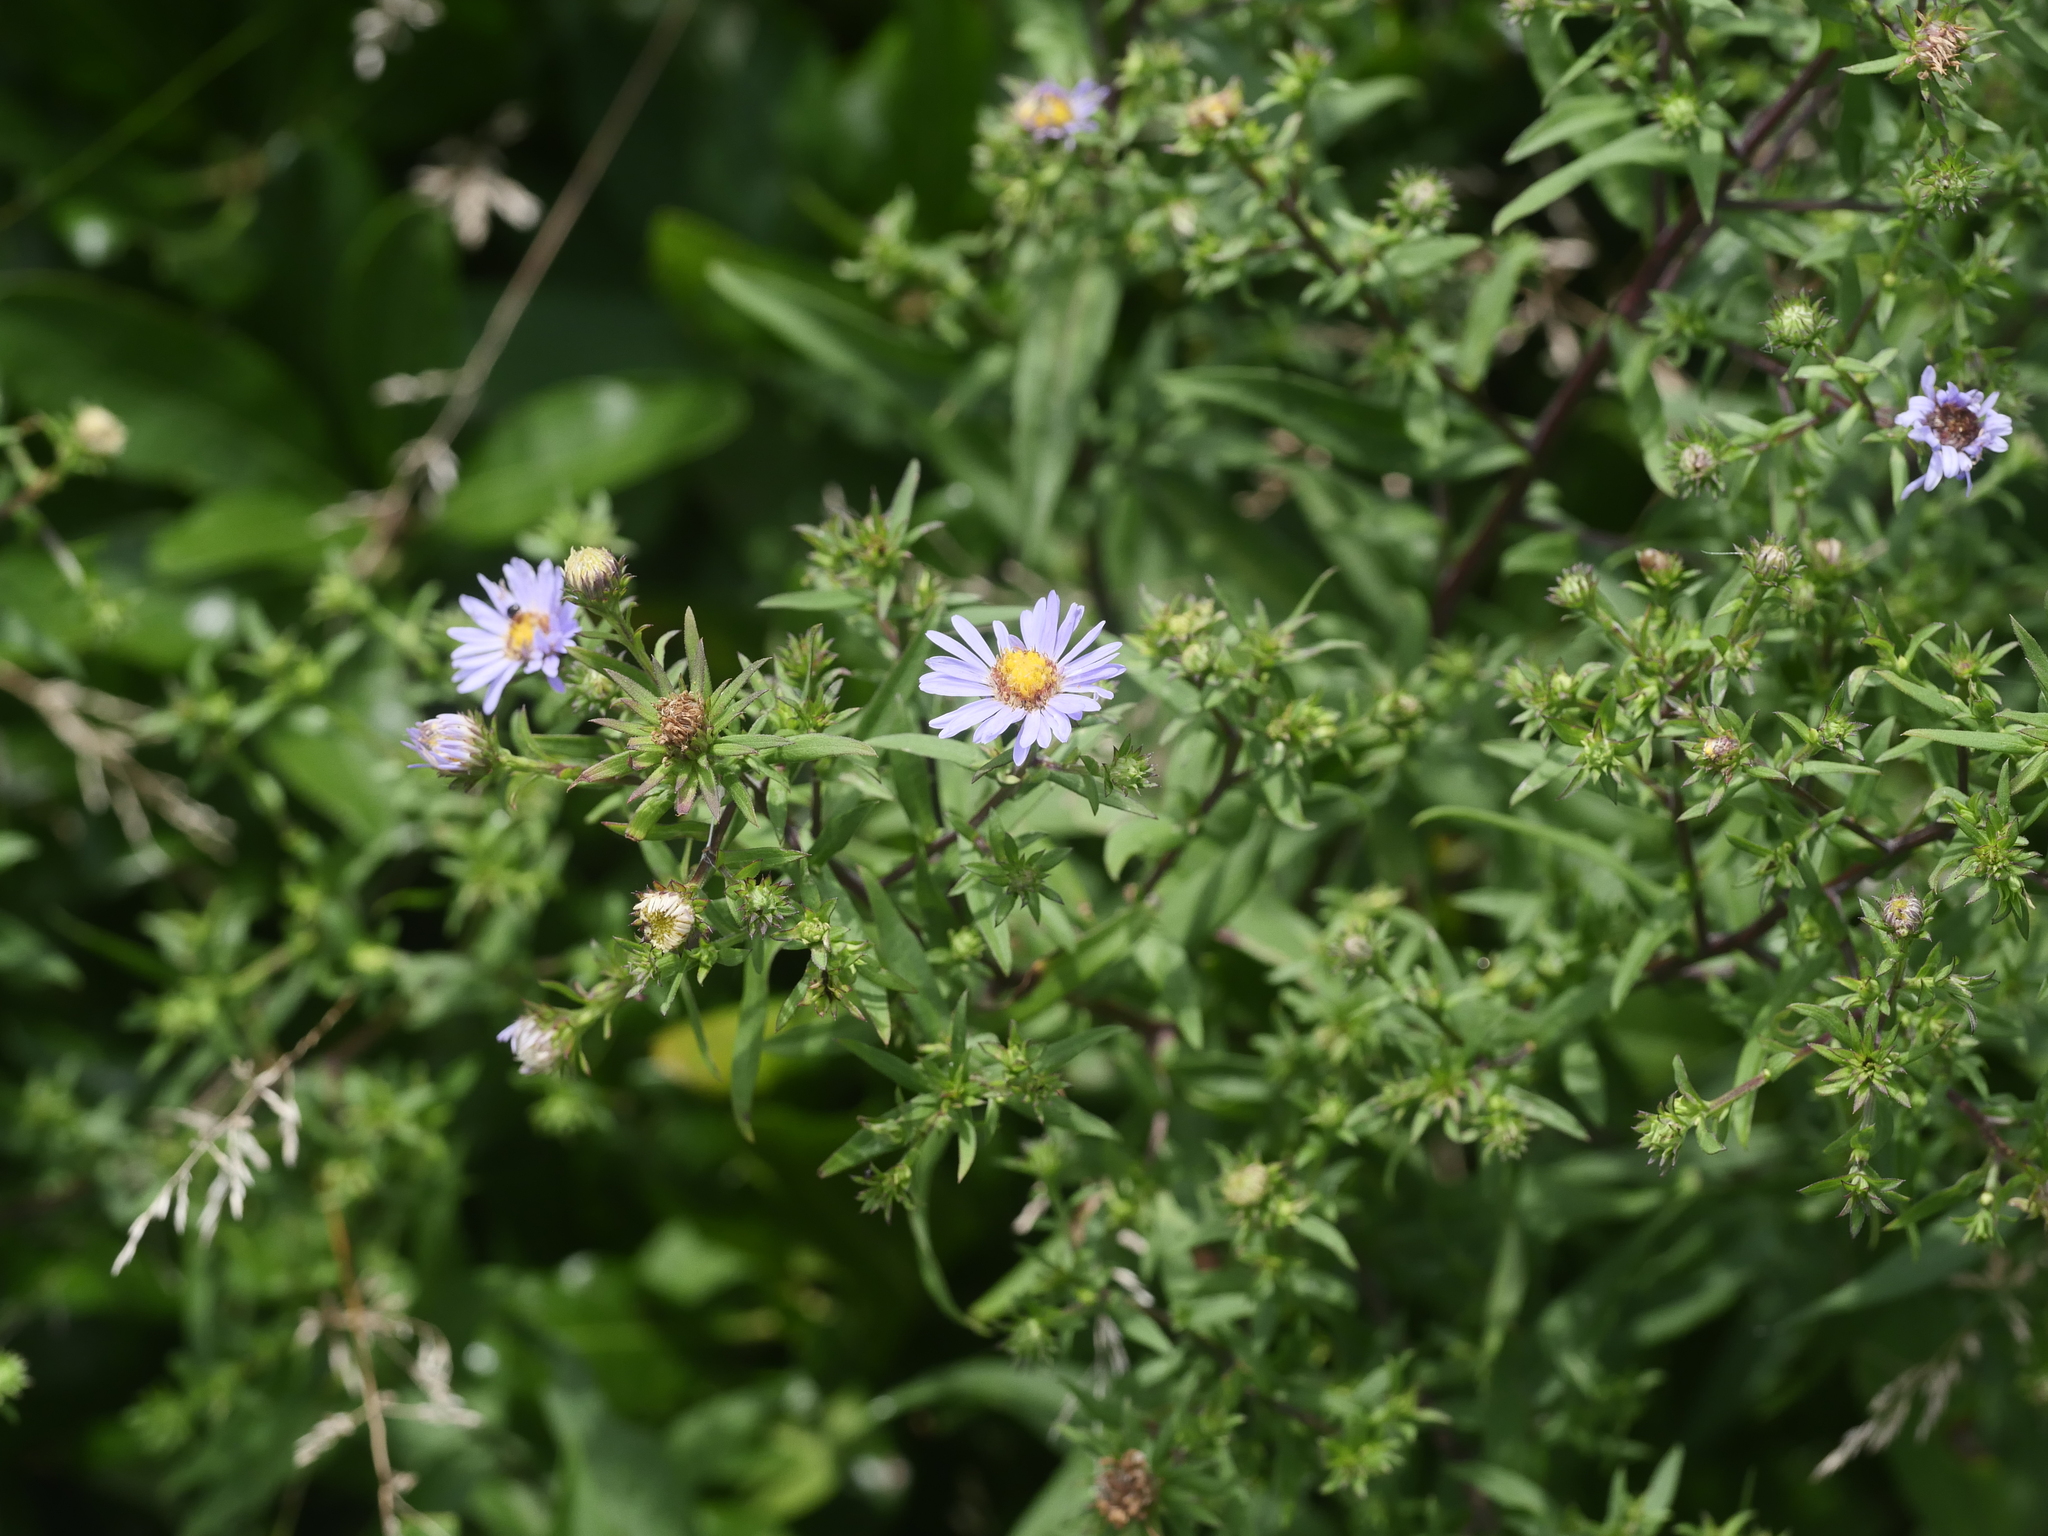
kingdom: Plantae
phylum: Tracheophyta
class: Magnoliopsida
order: Asterales
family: Asteraceae
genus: Symphyotrichum
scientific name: Symphyotrichum novi-belgii
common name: Michaelmas daisy
